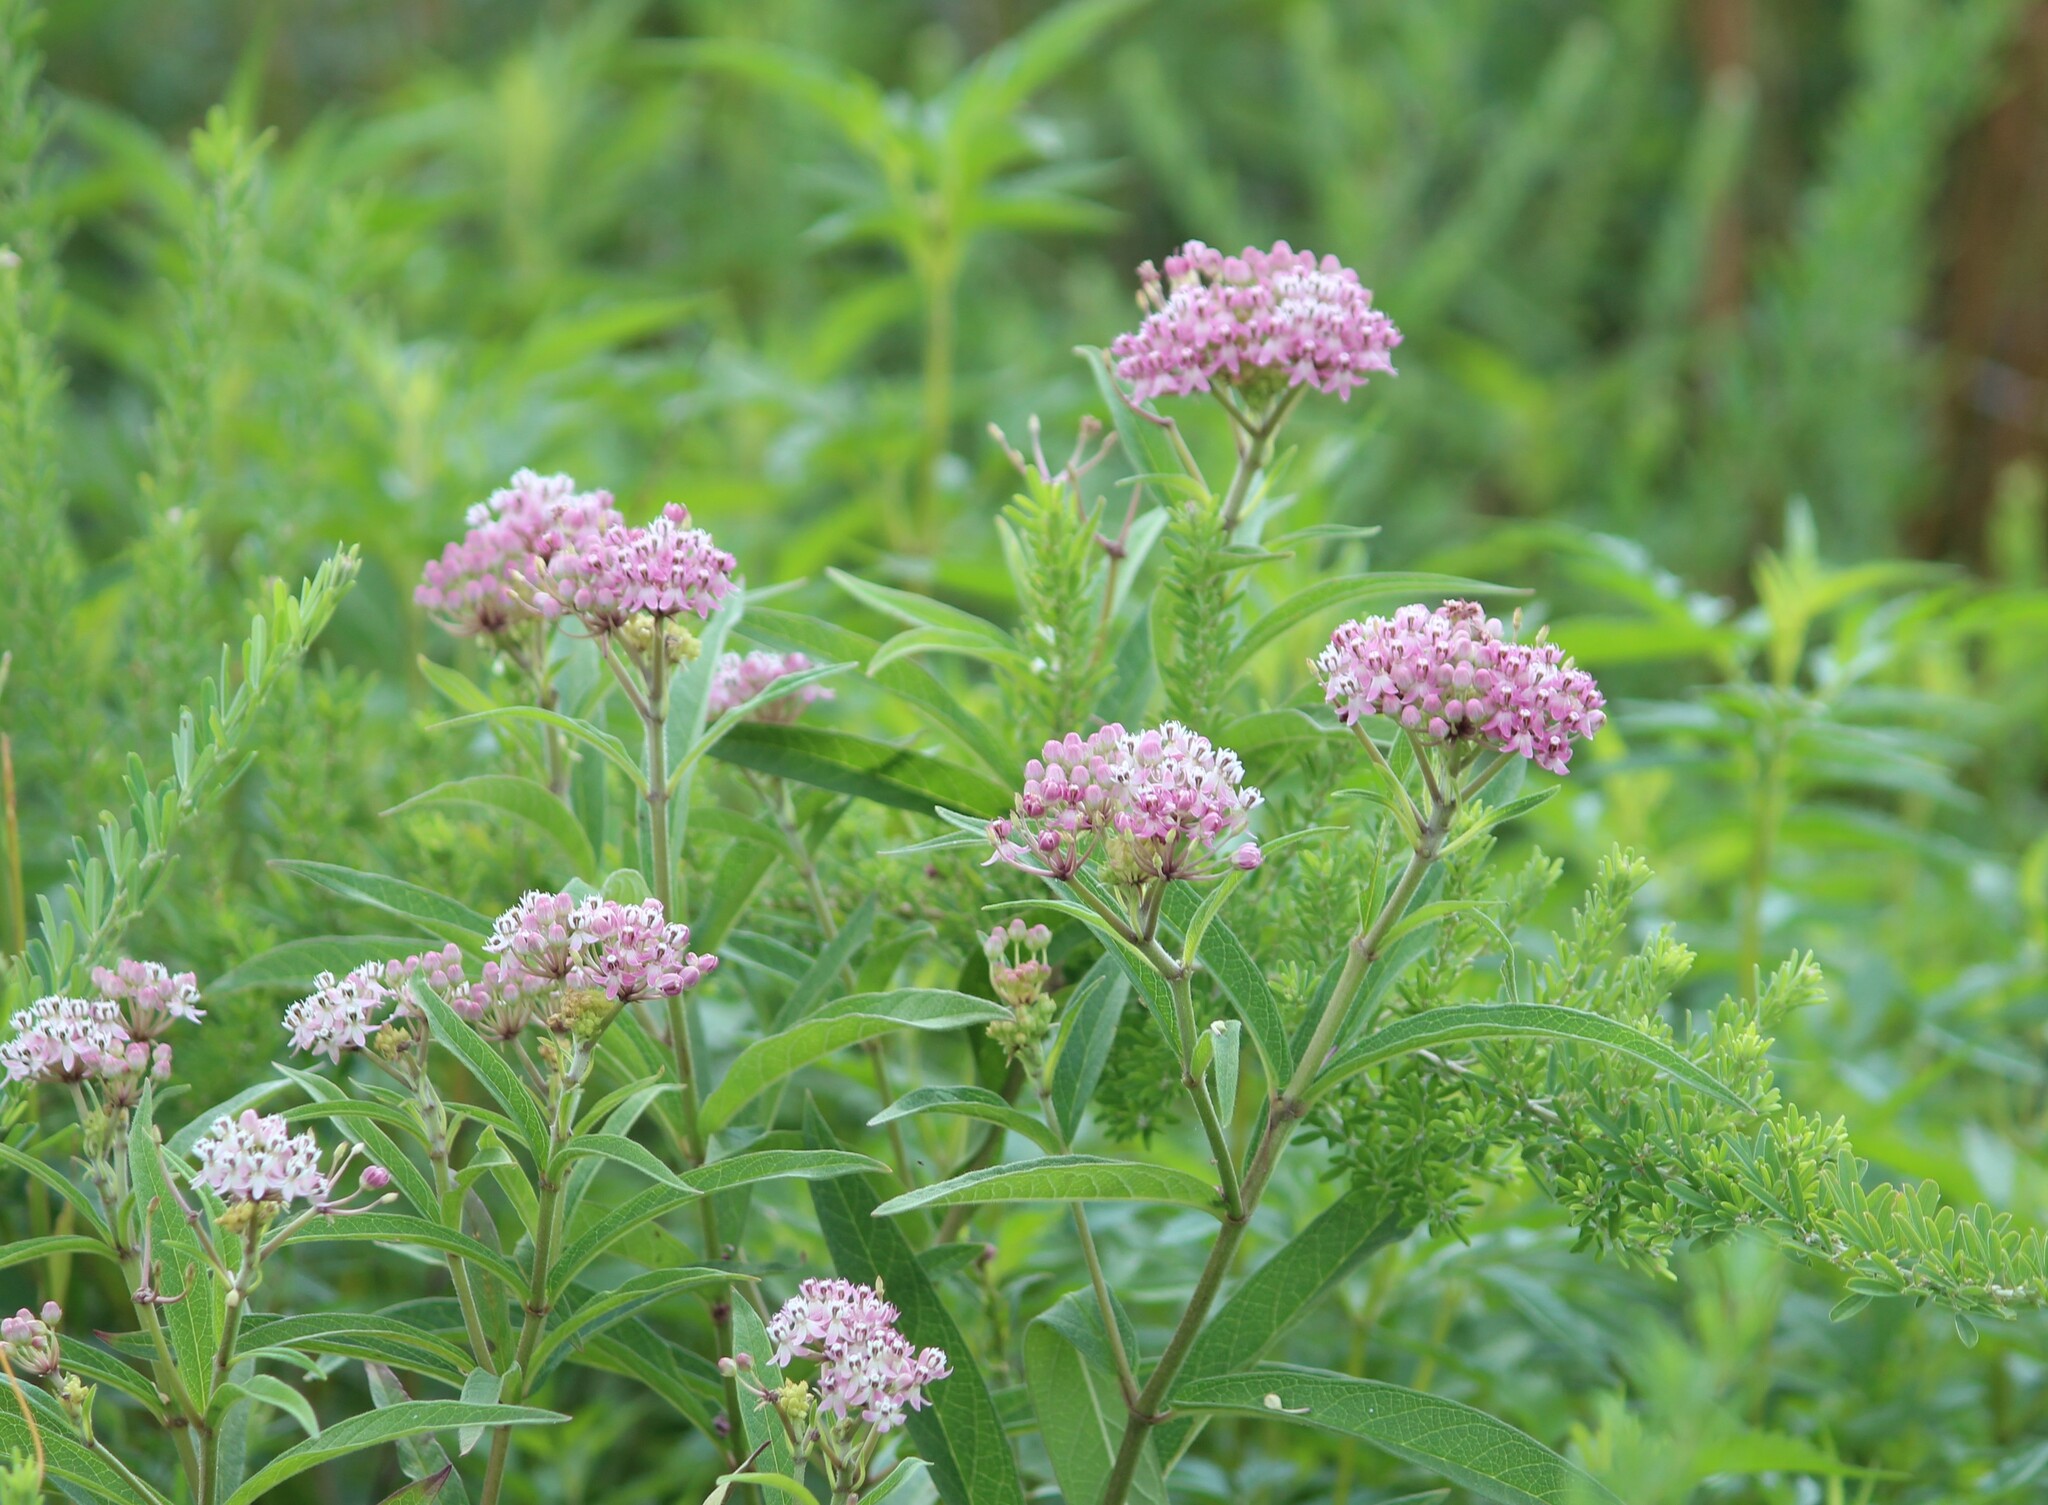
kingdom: Plantae
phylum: Tracheophyta
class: Magnoliopsida
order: Gentianales
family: Apocynaceae
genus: Asclepias
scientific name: Asclepias incarnata
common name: Swamp milkweed
